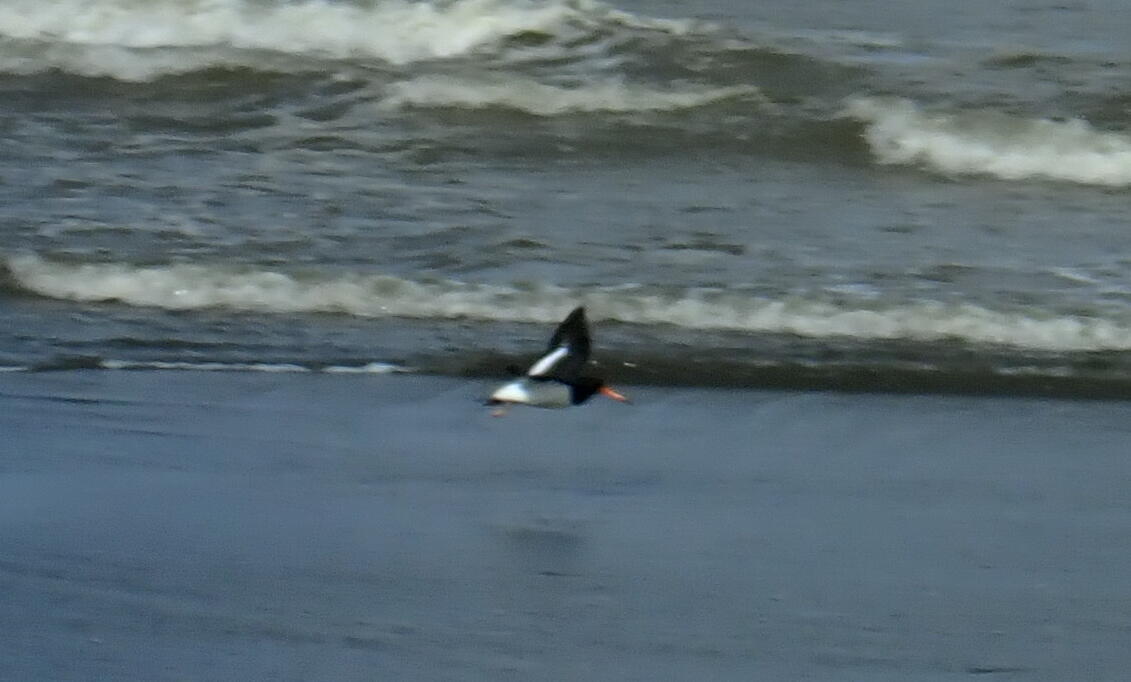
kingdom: Animalia
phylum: Chordata
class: Aves
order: Charadriiformes
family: Haematopodidae
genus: Haematopus
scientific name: Haematopus finschi
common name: South island oystercatcher
